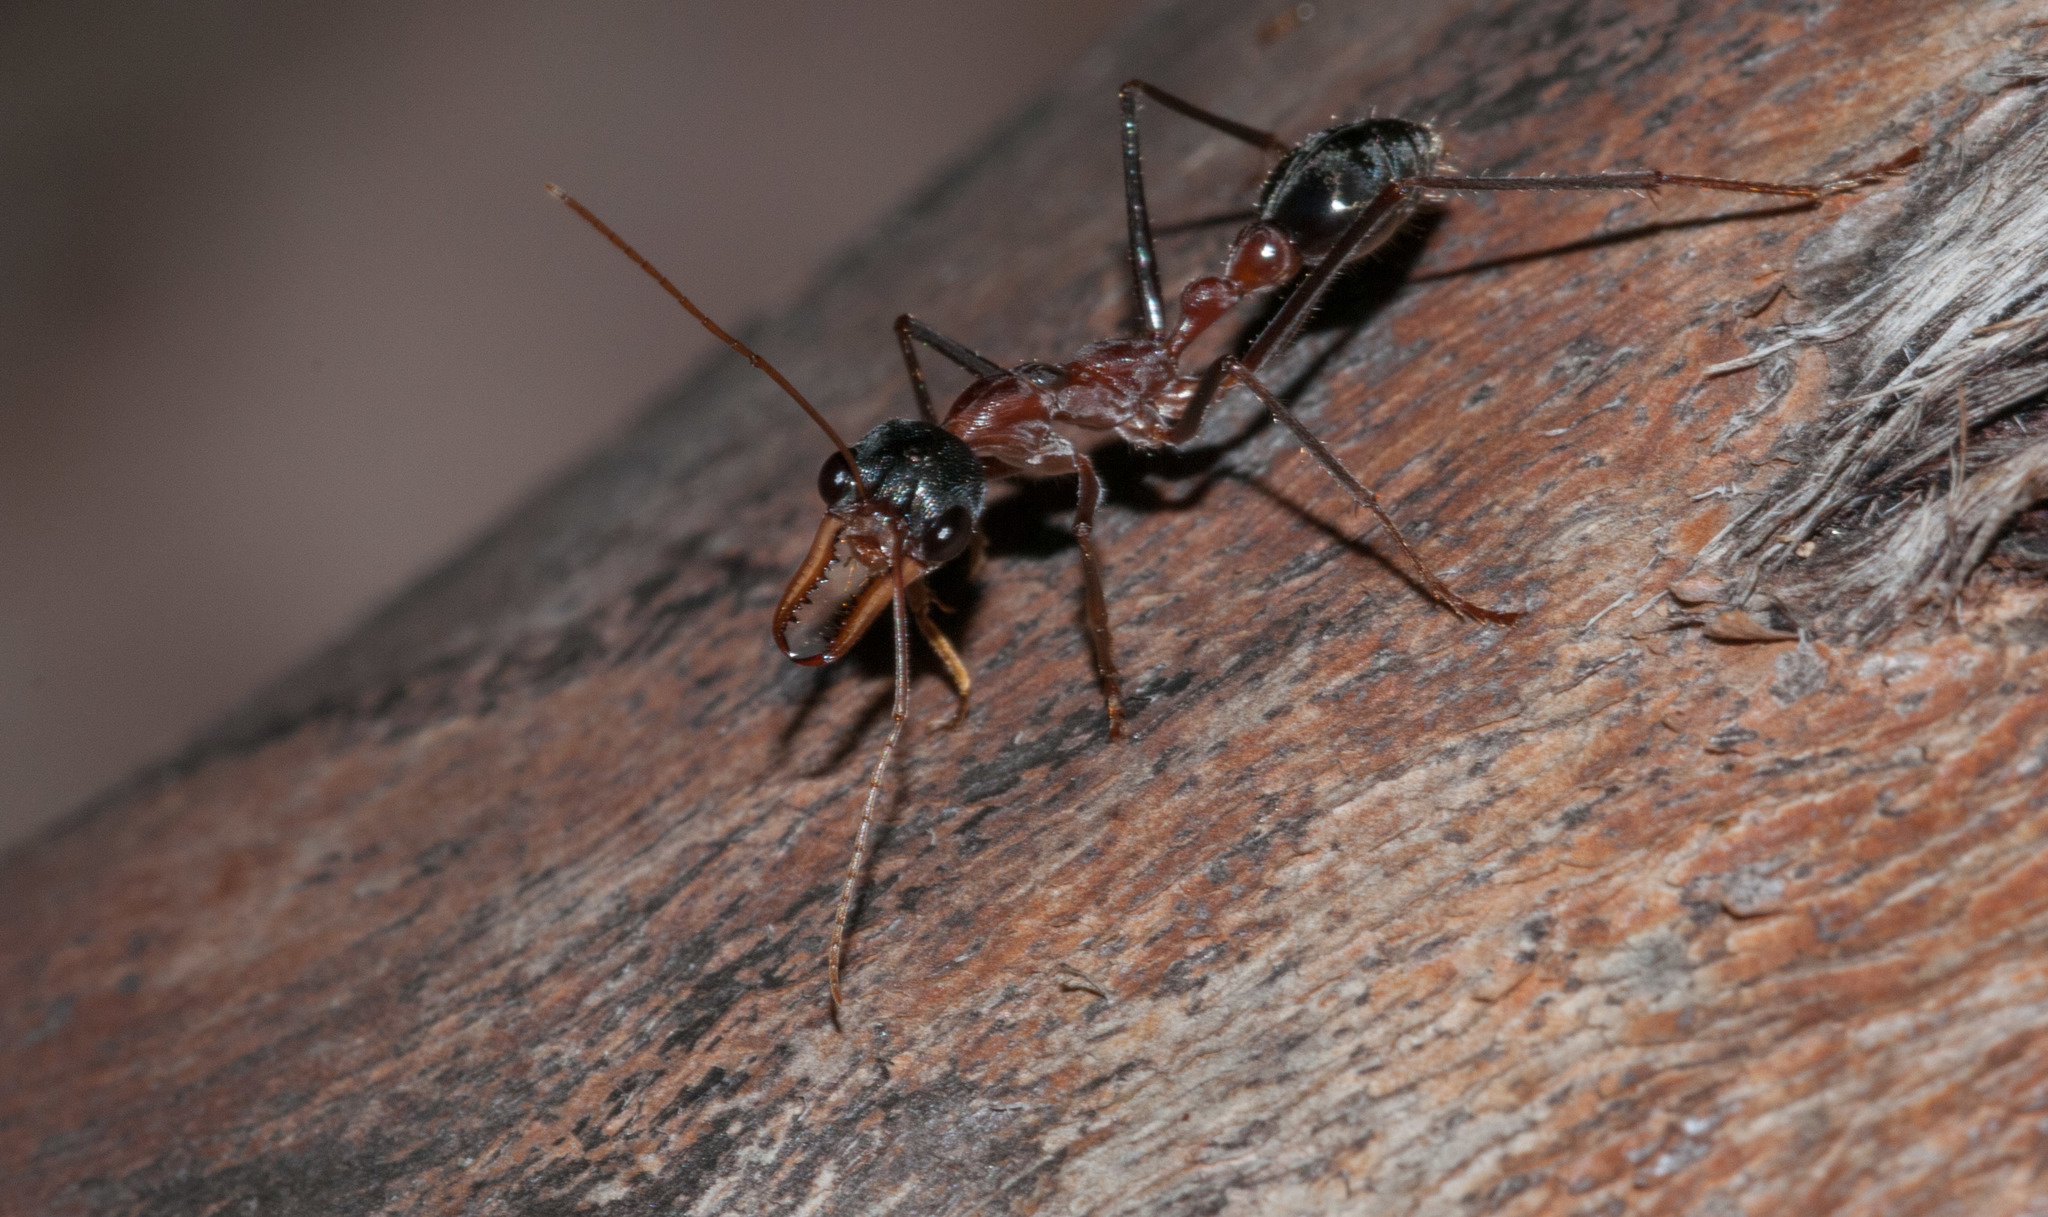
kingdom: Animalia
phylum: Arthropoda
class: Insecta
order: Hymenoptera
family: Formicidae
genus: Myrmecia
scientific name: Myrmecia fuscipes
